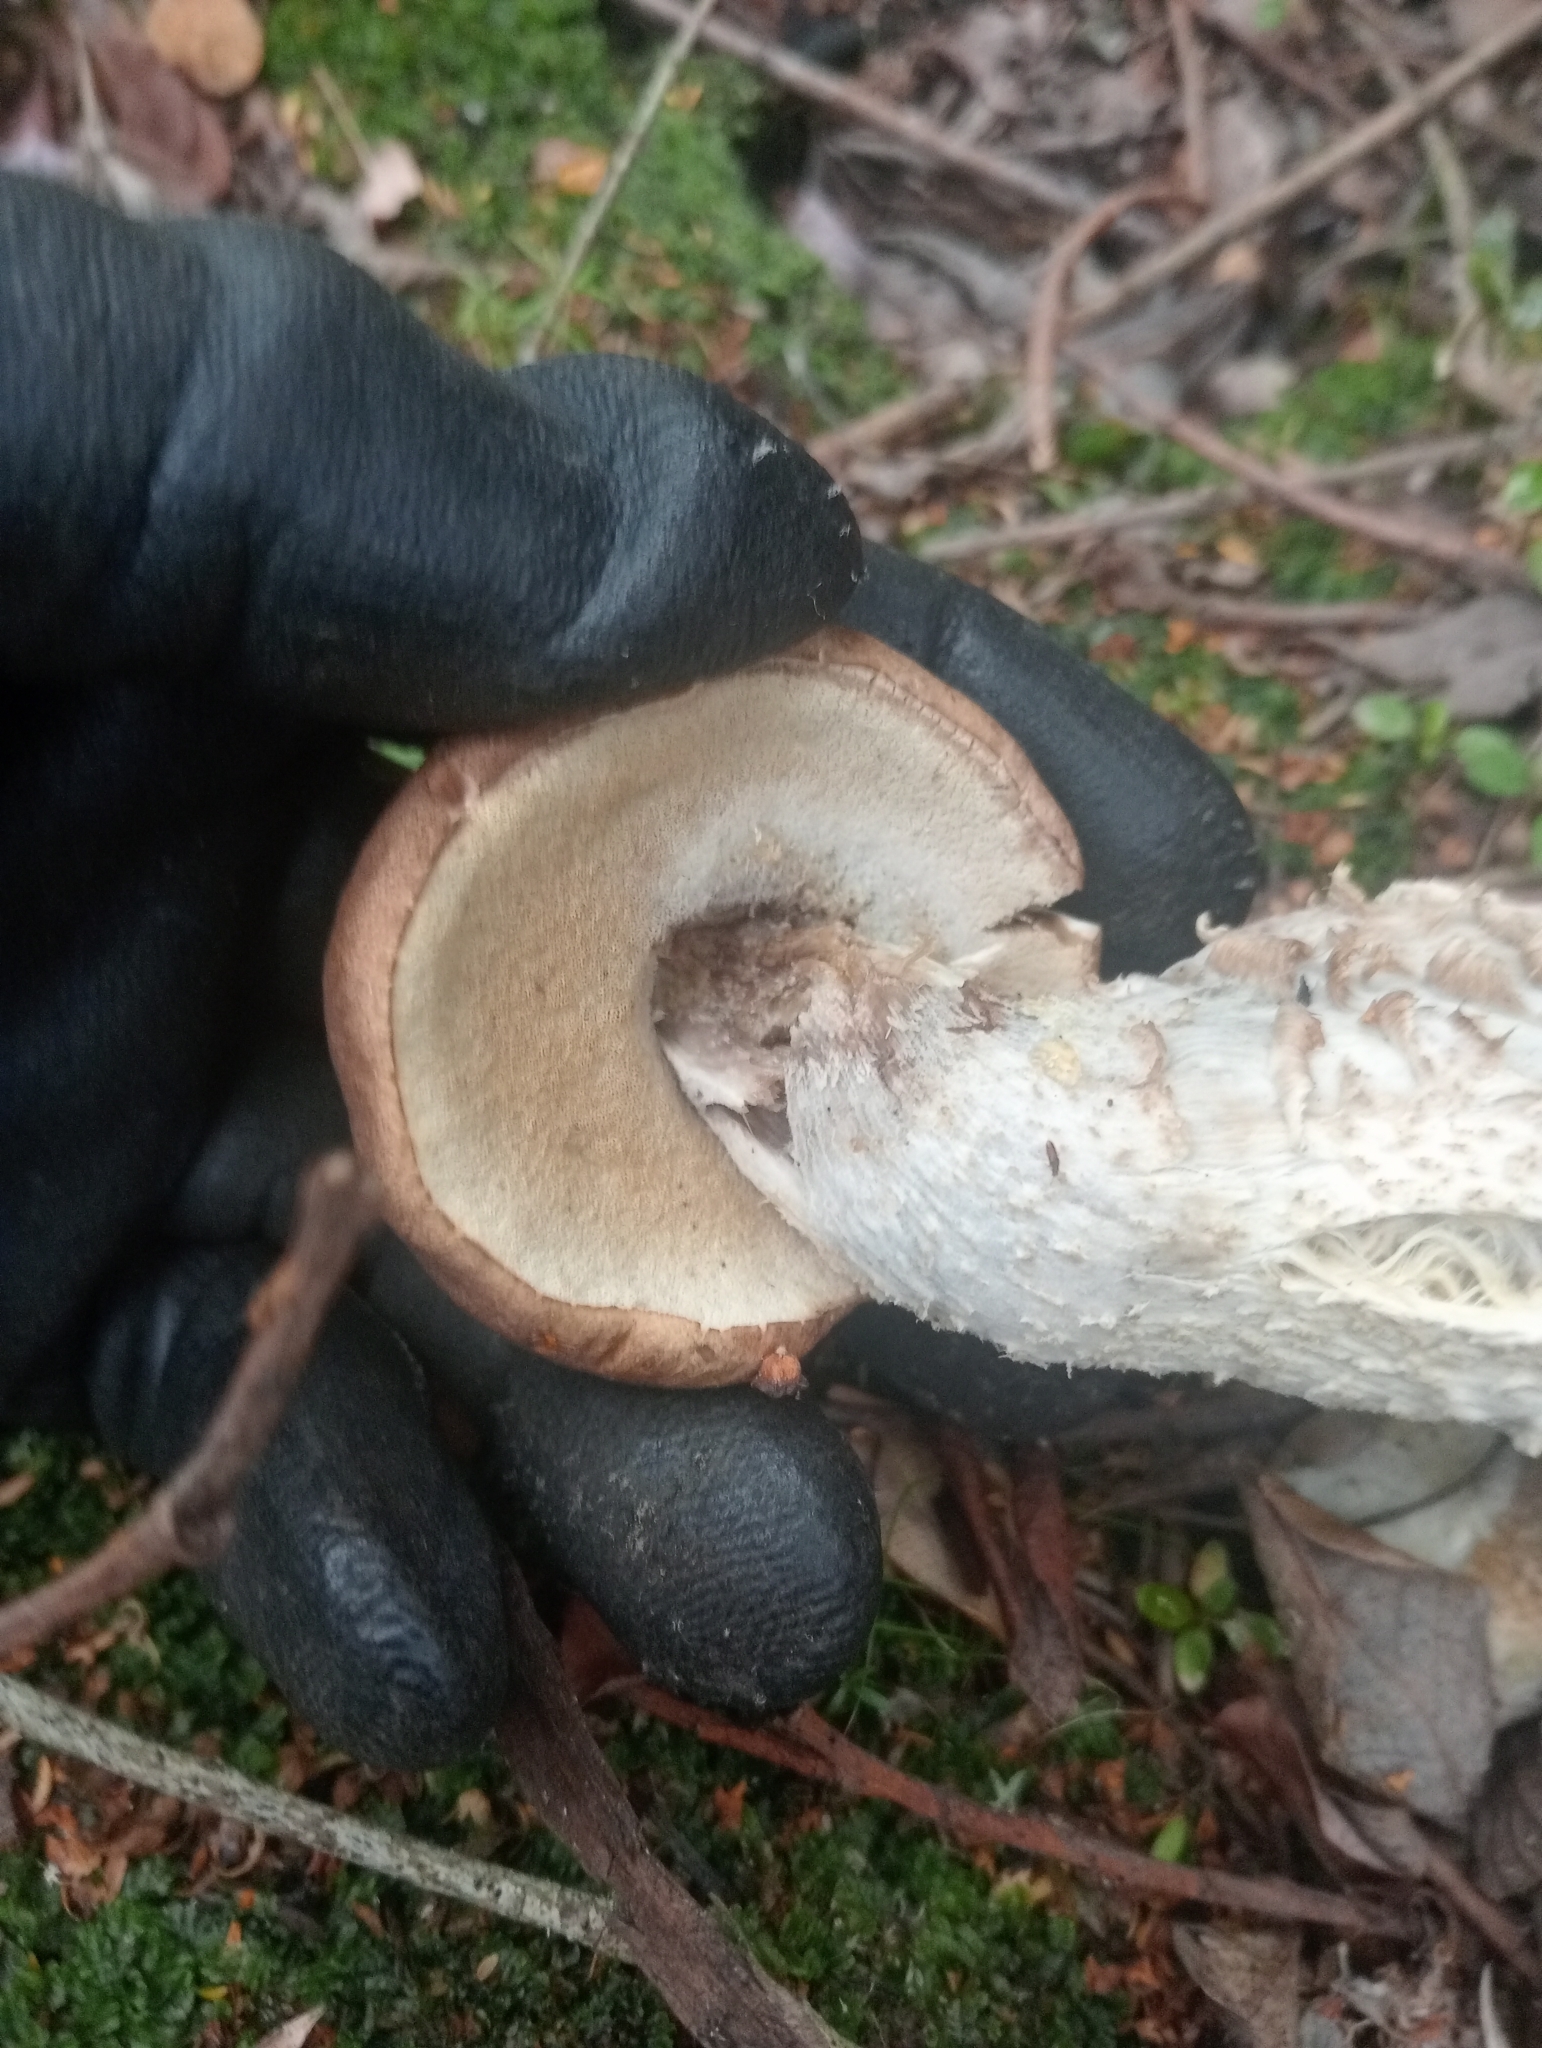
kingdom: Fungi
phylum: Basidiomycota
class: Agaricomycetes
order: Boletales
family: Boletaceae
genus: Leccinum
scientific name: Leccinum scabrum
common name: Blushing bolete
